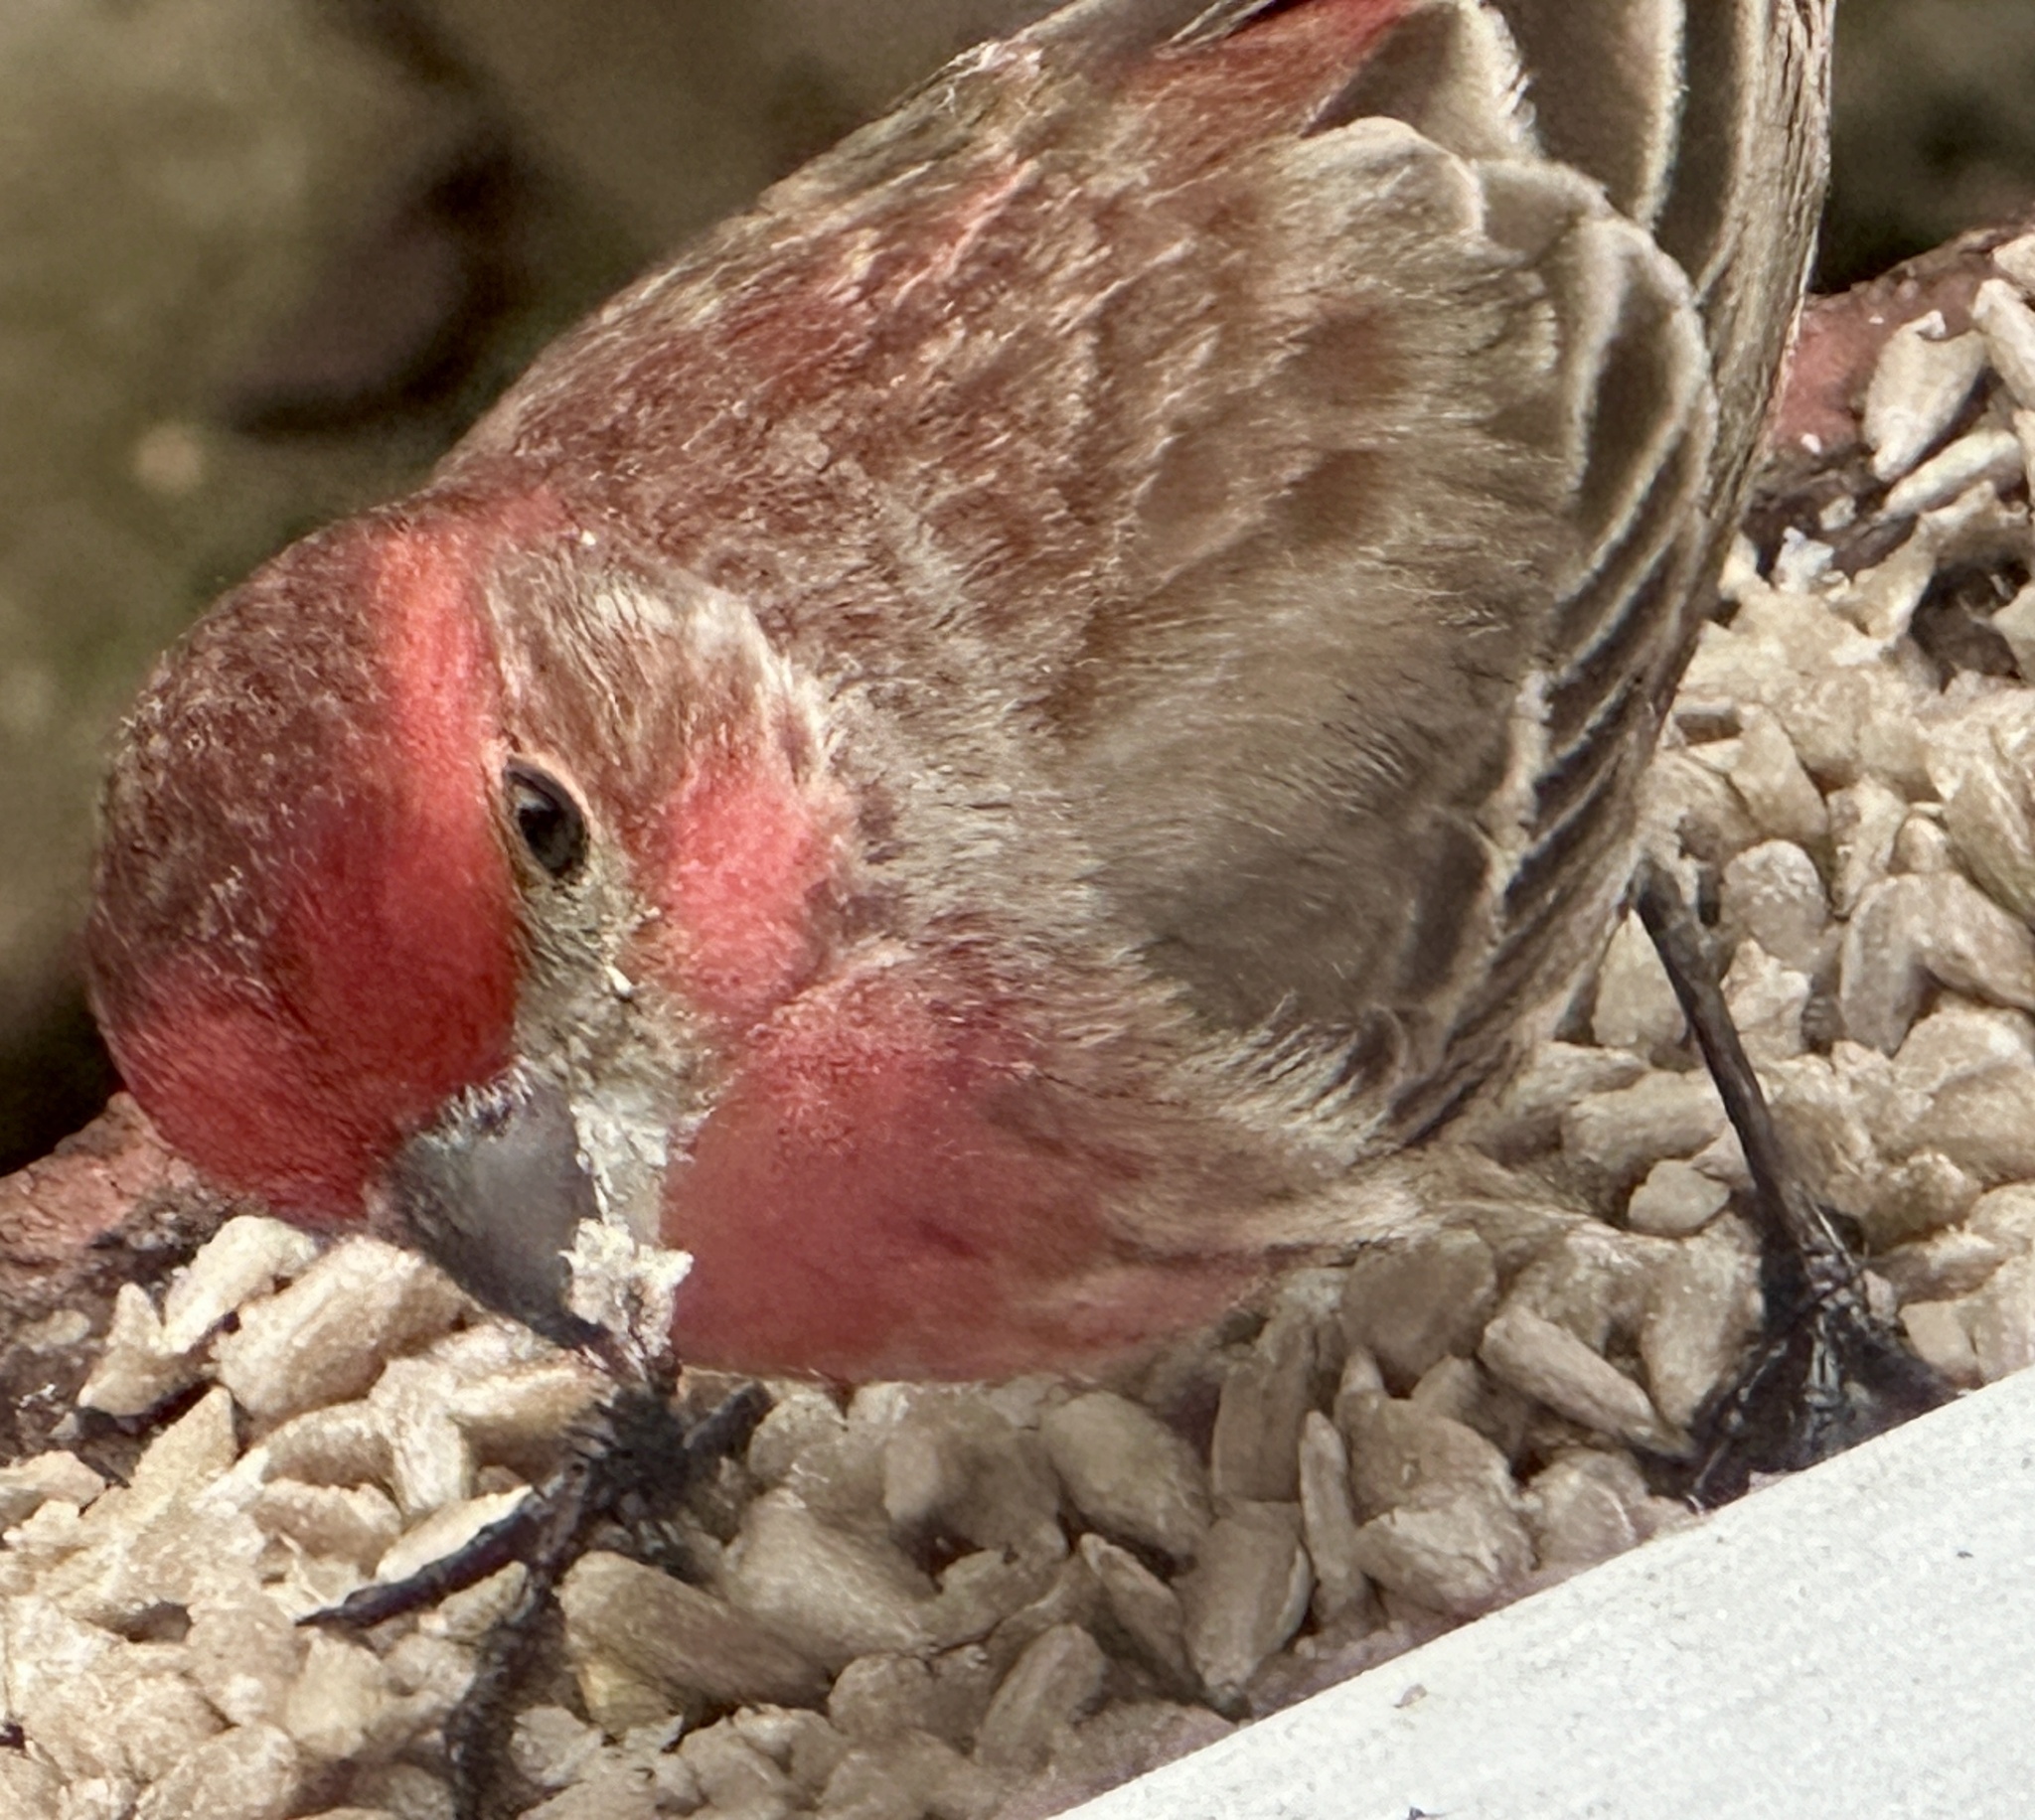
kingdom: Animalia
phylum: Chordata
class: Aves
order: Passeriformes
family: Fringillidae
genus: Haemorhous
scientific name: Haemorhous mexicanus
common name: House finch
